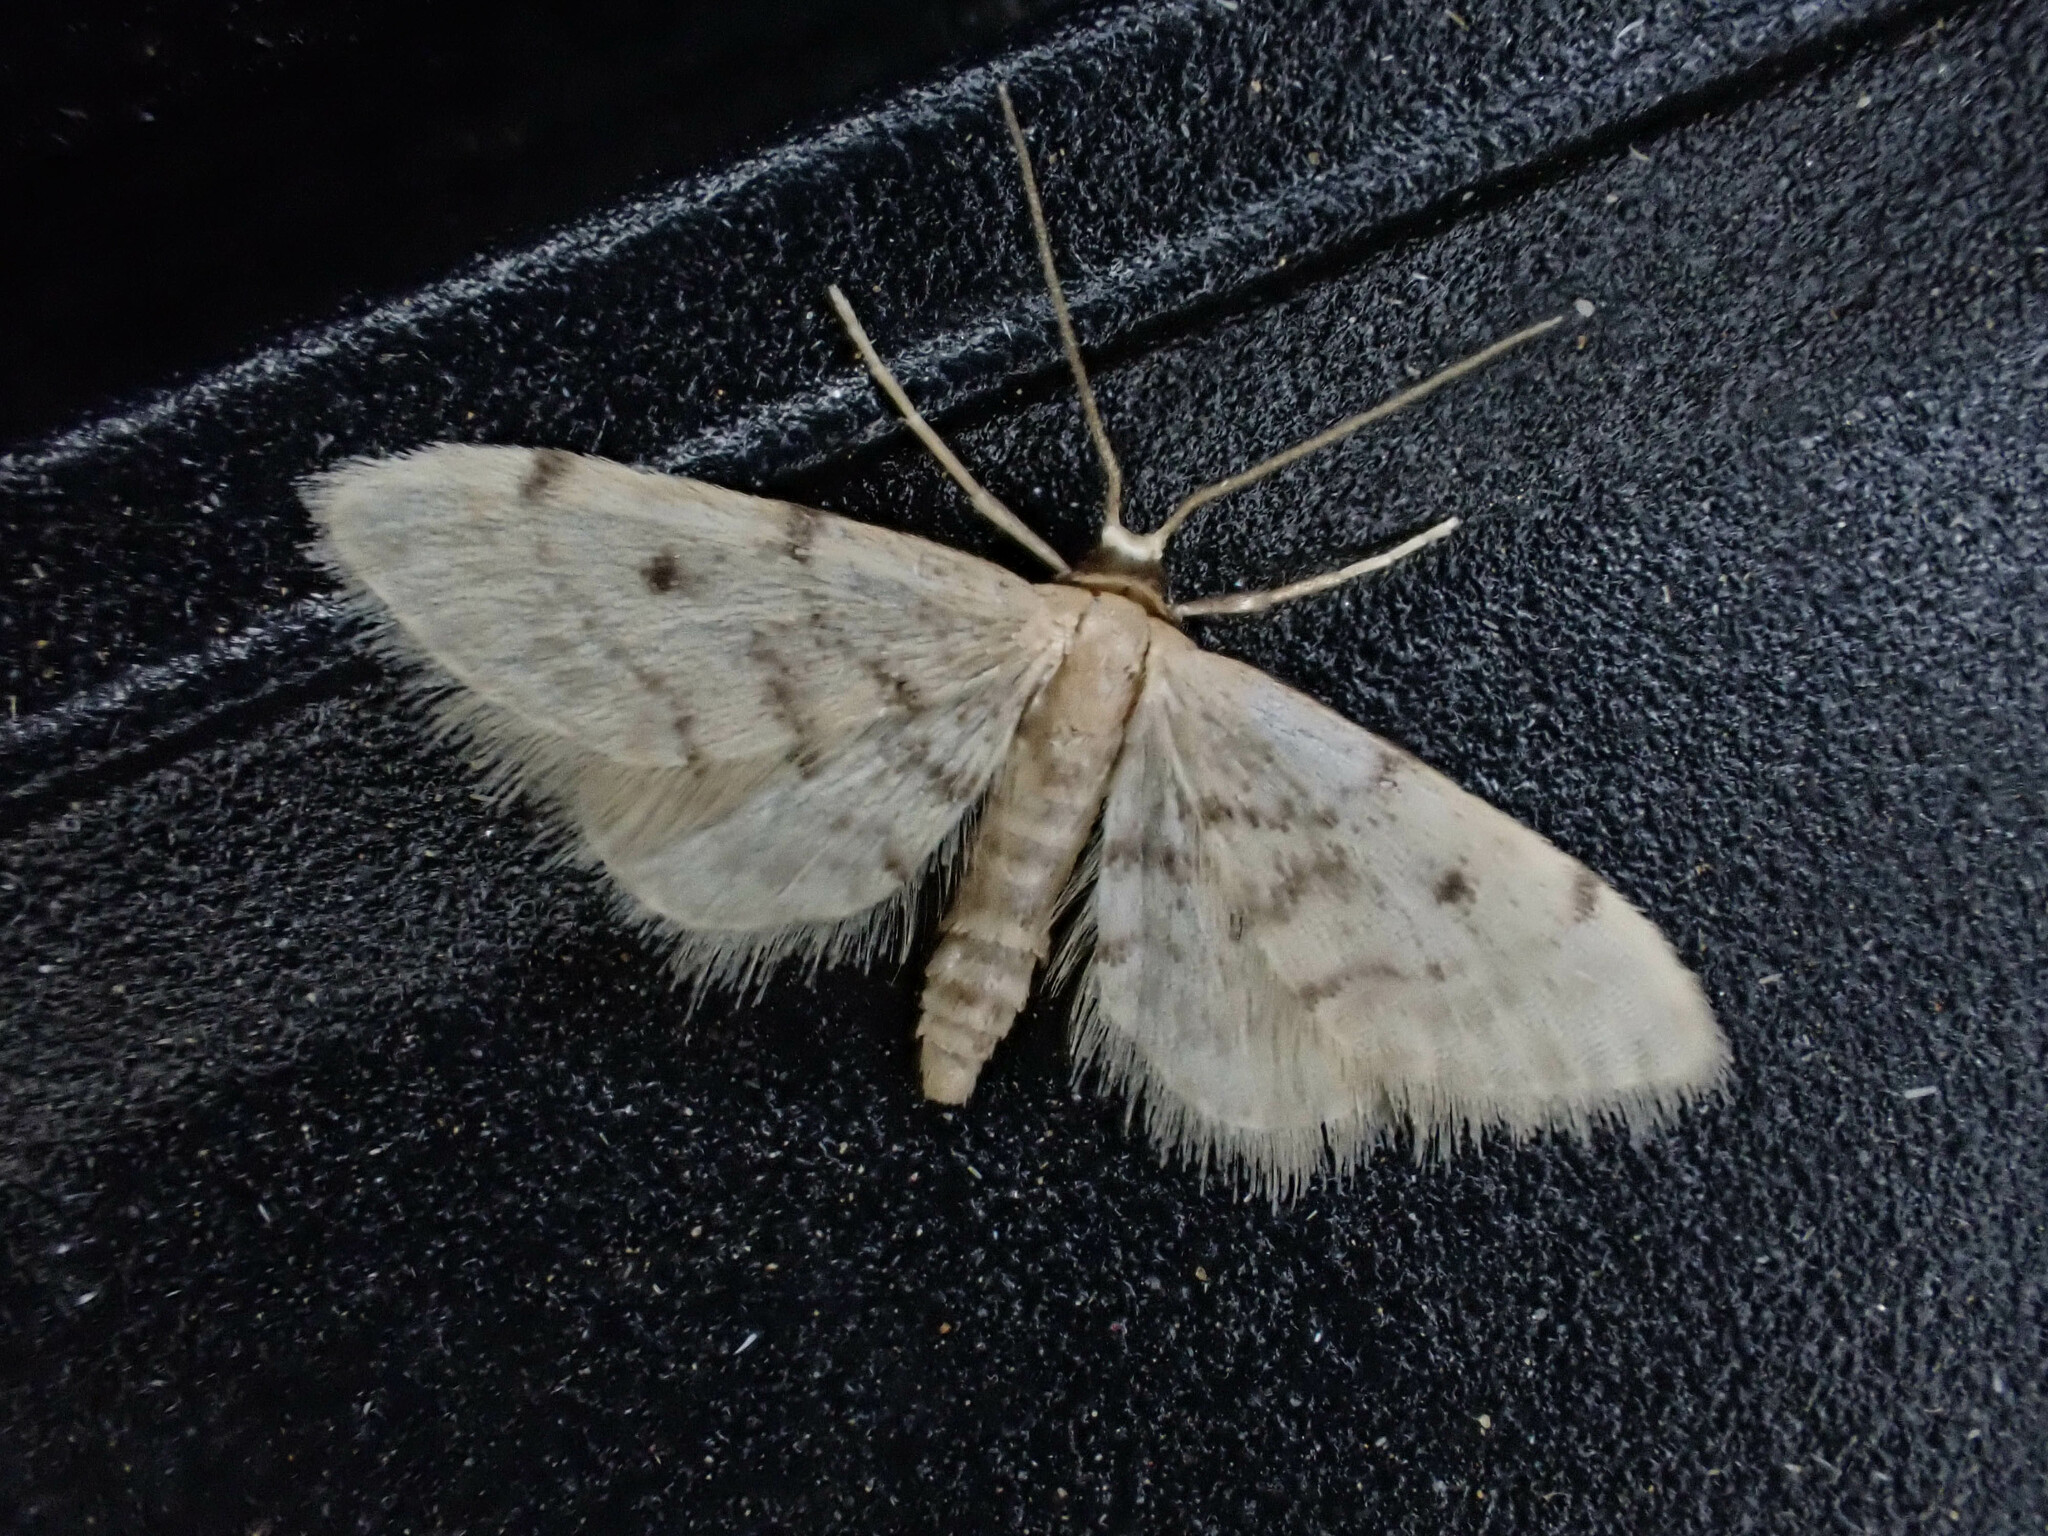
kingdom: Animalia
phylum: Arthropoda
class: Insecta
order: Lepidoptera
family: Geometridae
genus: Idaea
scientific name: Idaea bonifata
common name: Fortunate wave
